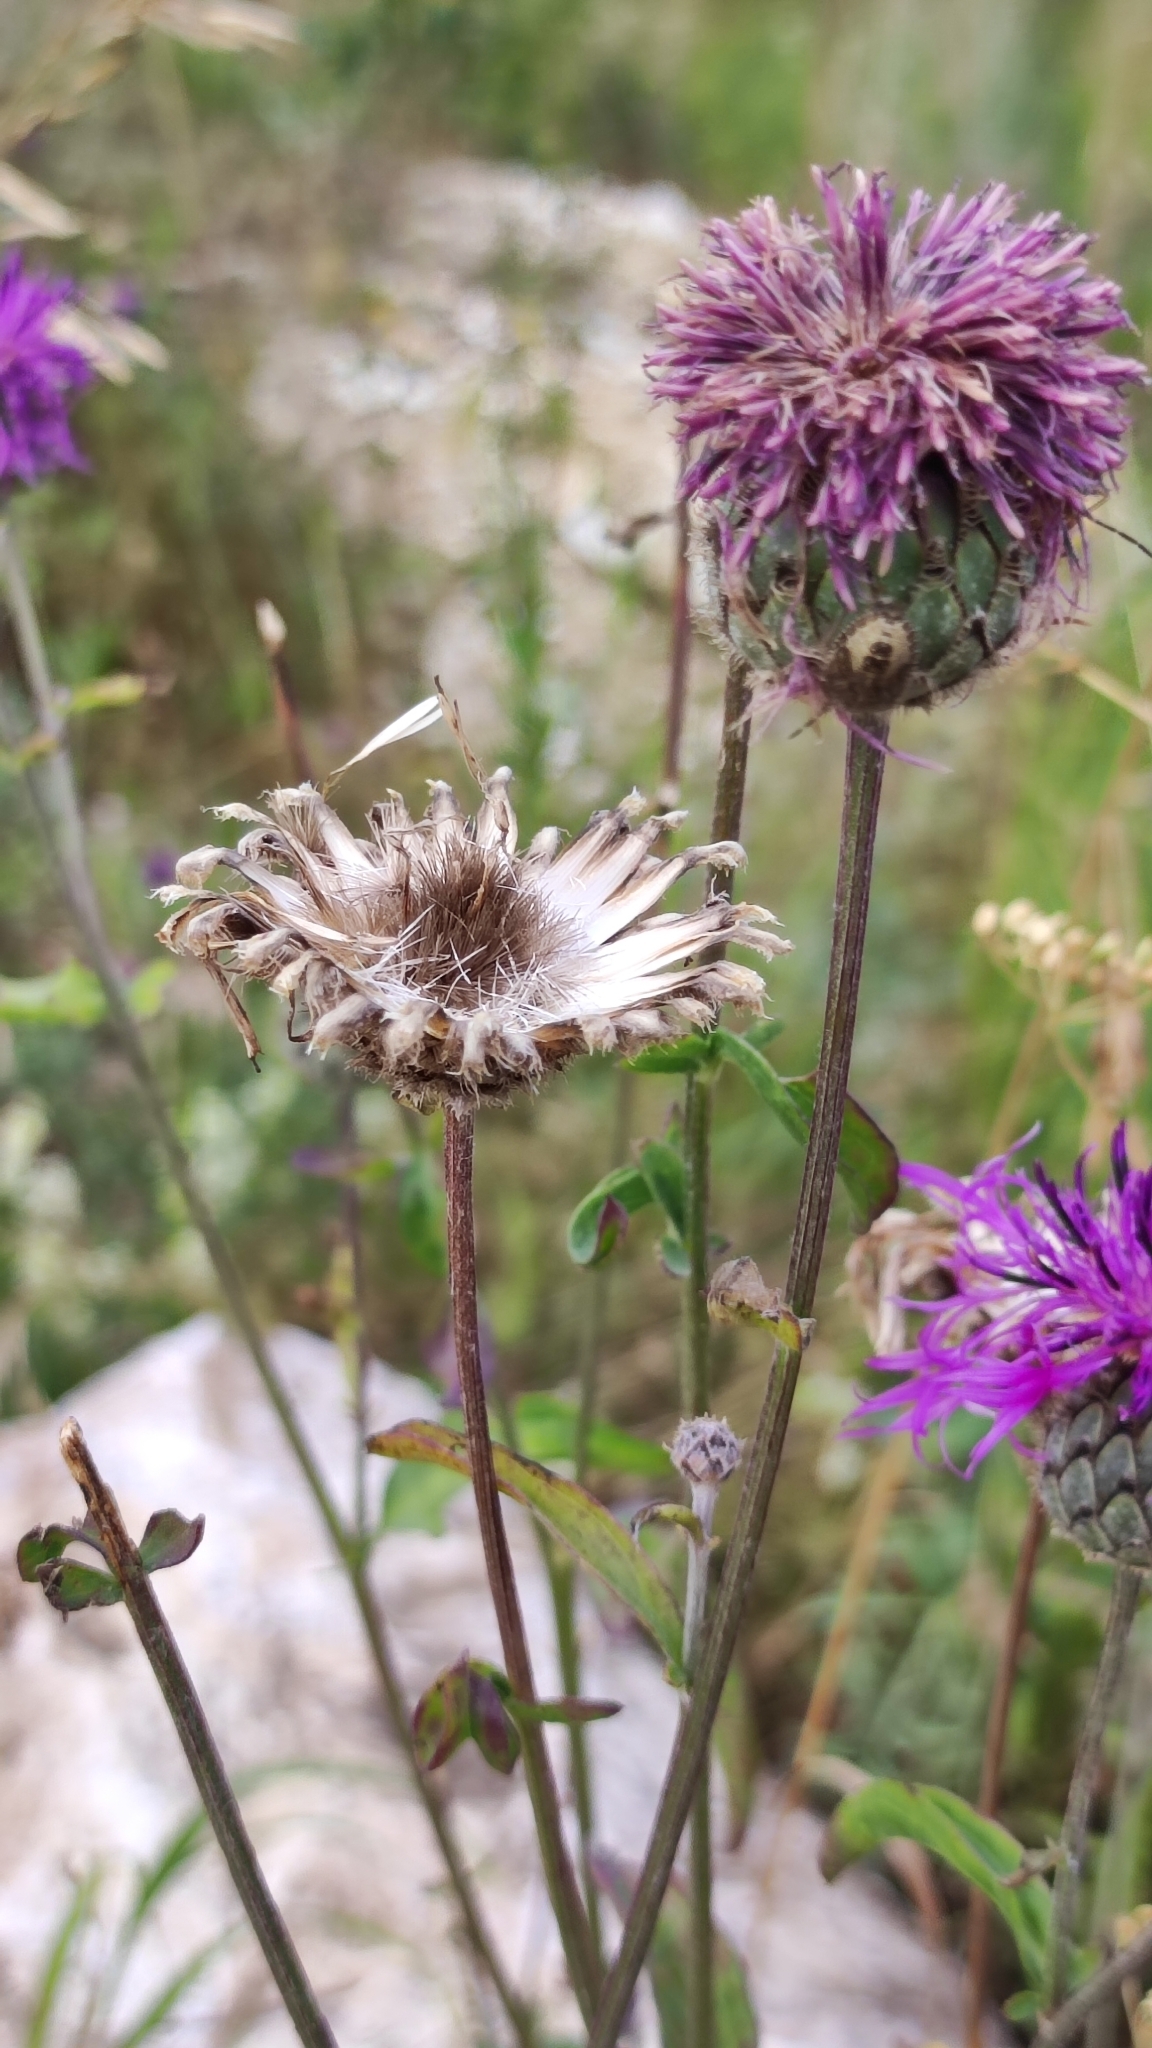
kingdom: Plantae
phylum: Tracheophyta
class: Magnoliopsida
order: Asterales
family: Asteraceae
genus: Centaurea
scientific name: Centaurea scabiosa
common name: Greater knapweed
